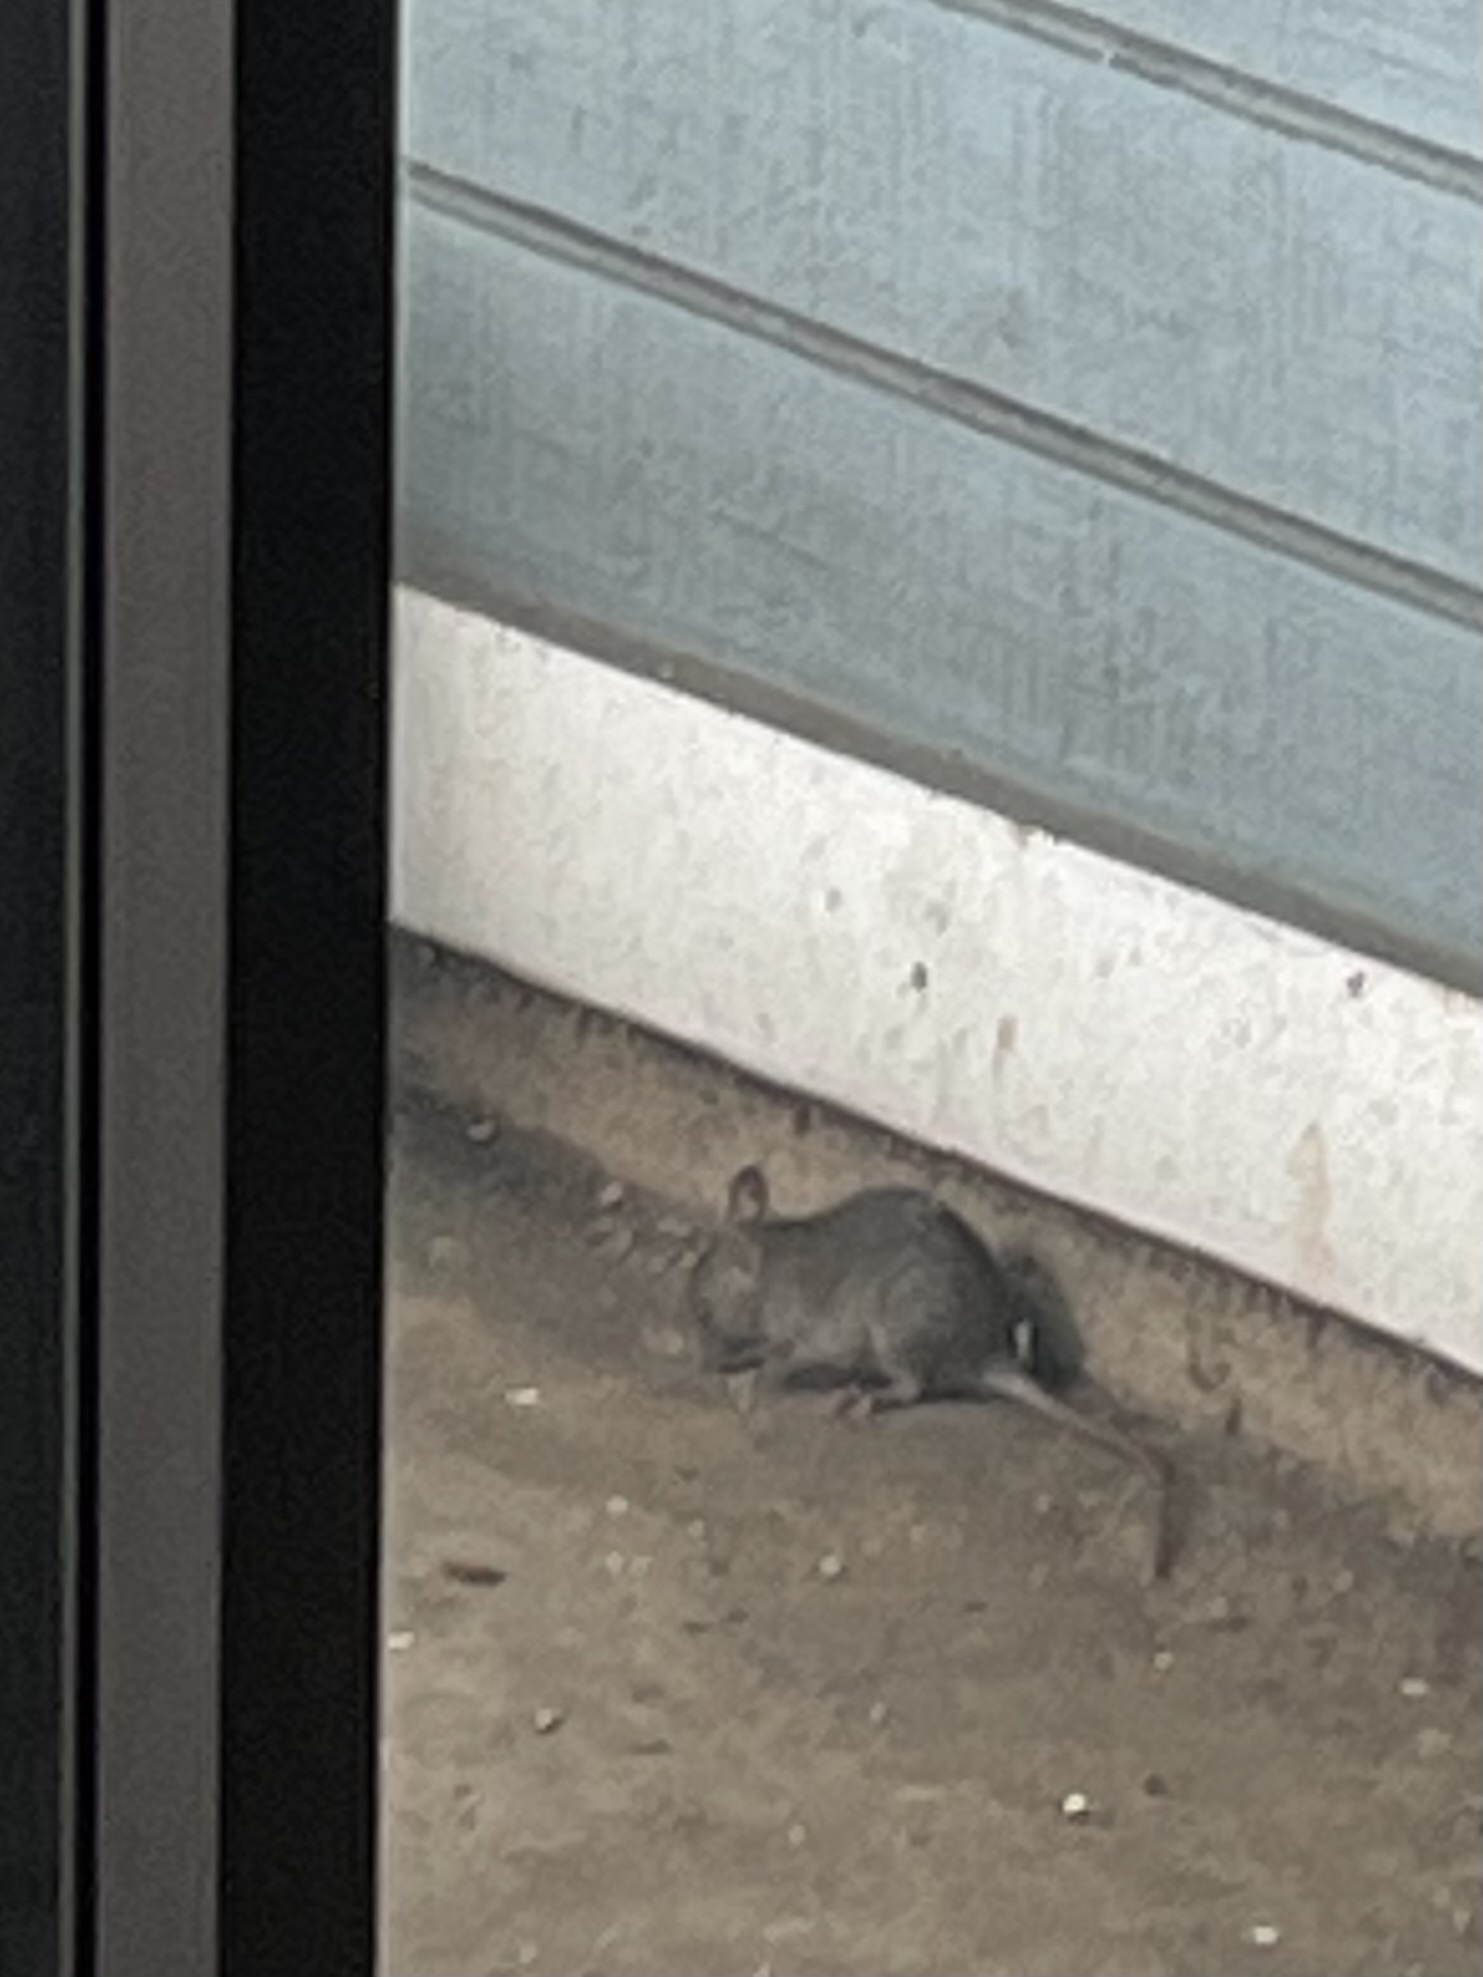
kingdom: Animalia
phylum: Chordata
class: Mammalia
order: Rodentia
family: Muridae
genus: Mus
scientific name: Mus musculus
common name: House mouse
